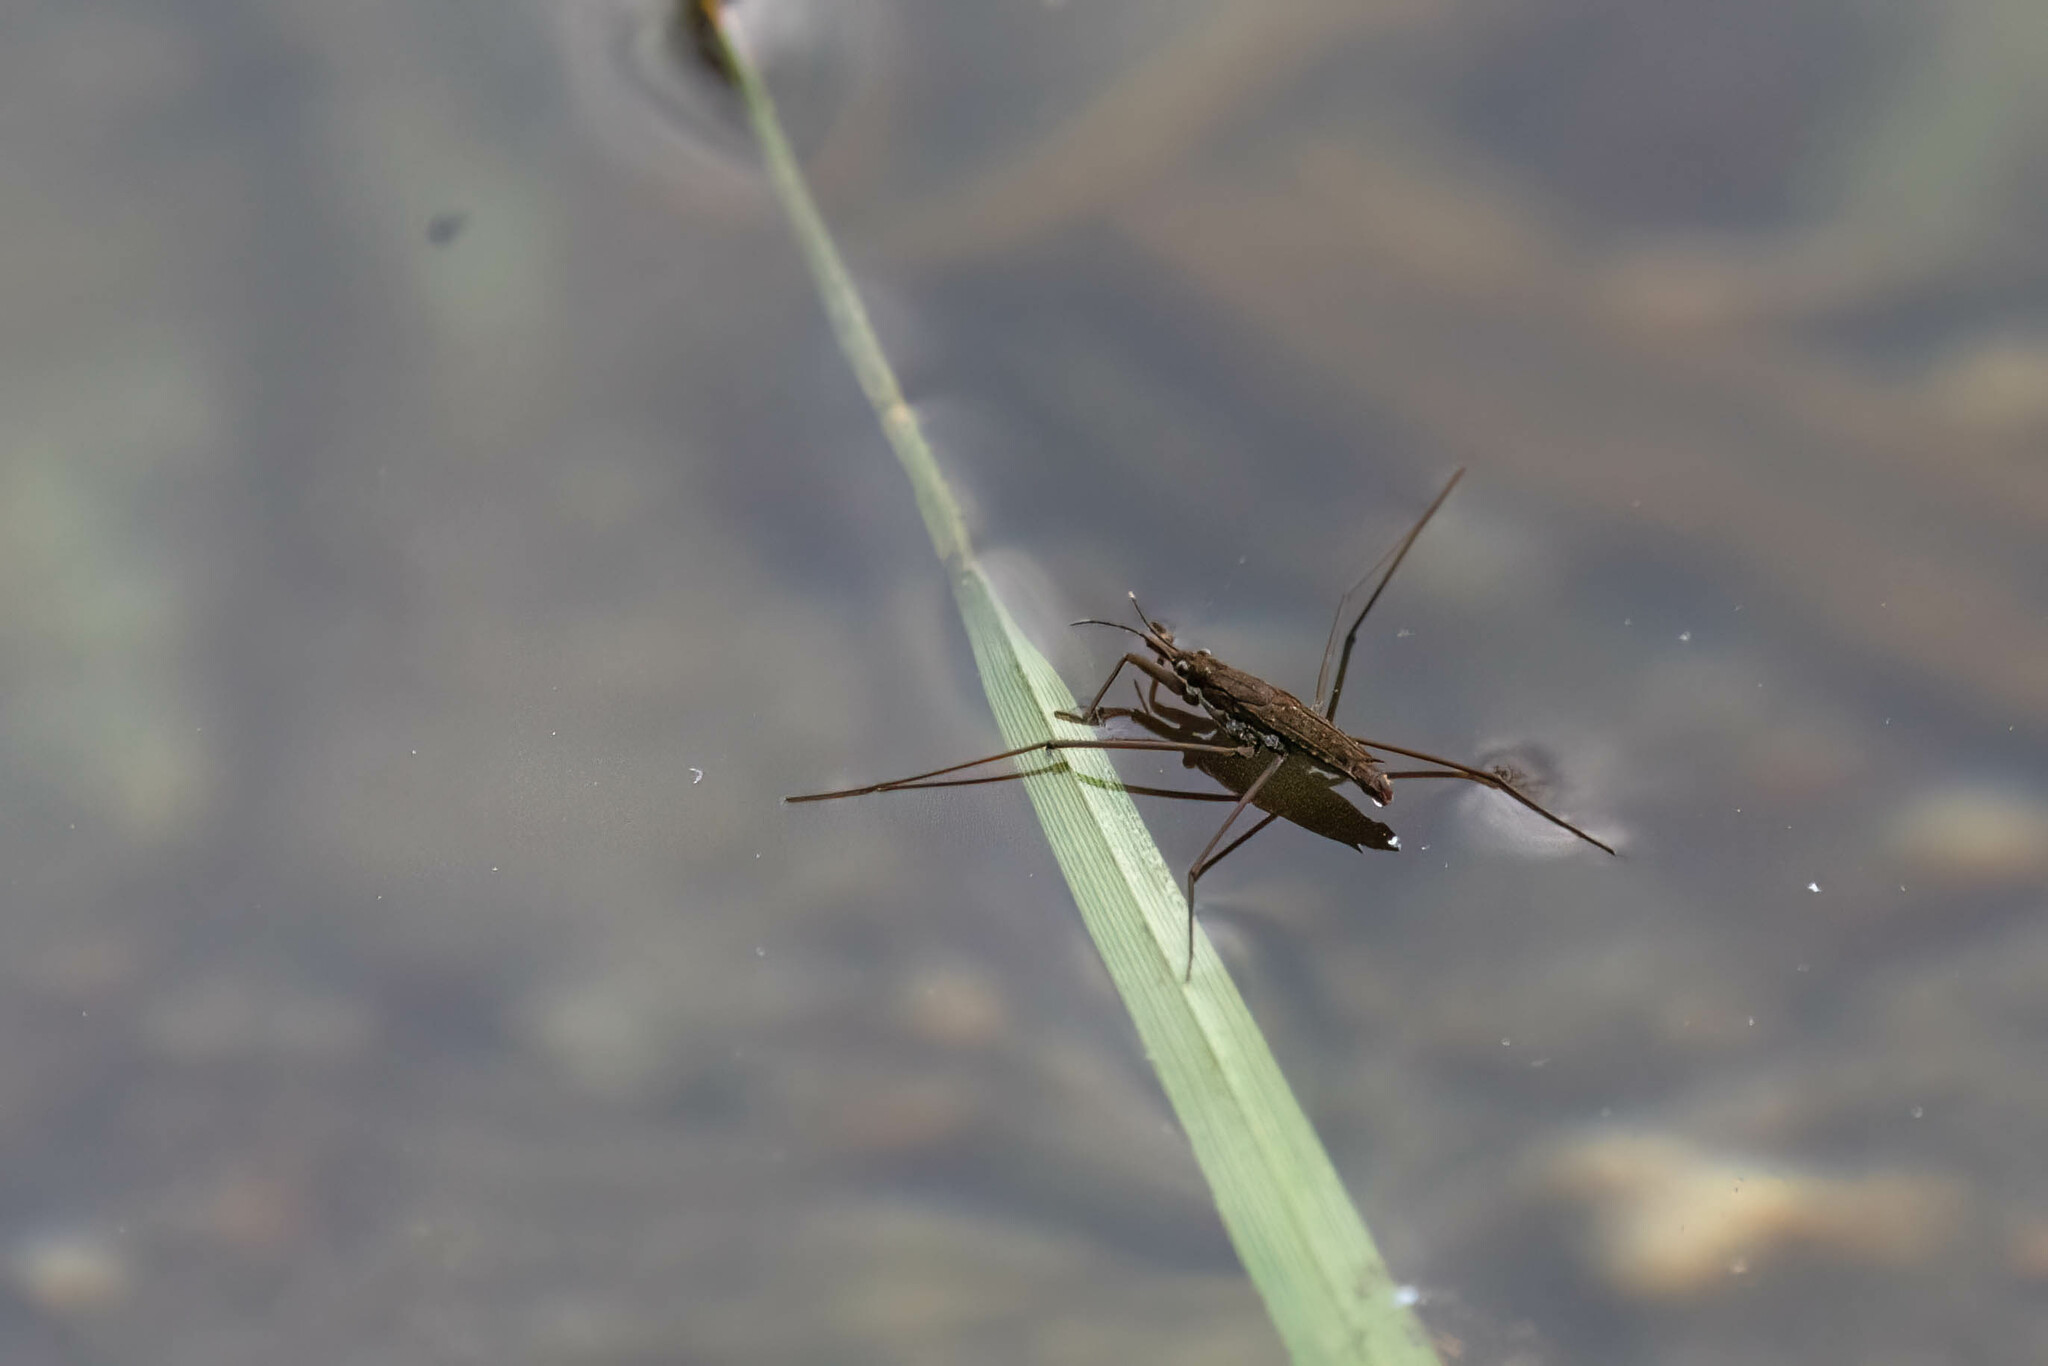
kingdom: Animalia
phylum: Arthropoda
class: Insecta
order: Hemiptera
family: Gerridae
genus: Aquarius
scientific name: Aquarius remigis
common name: Common water strider
